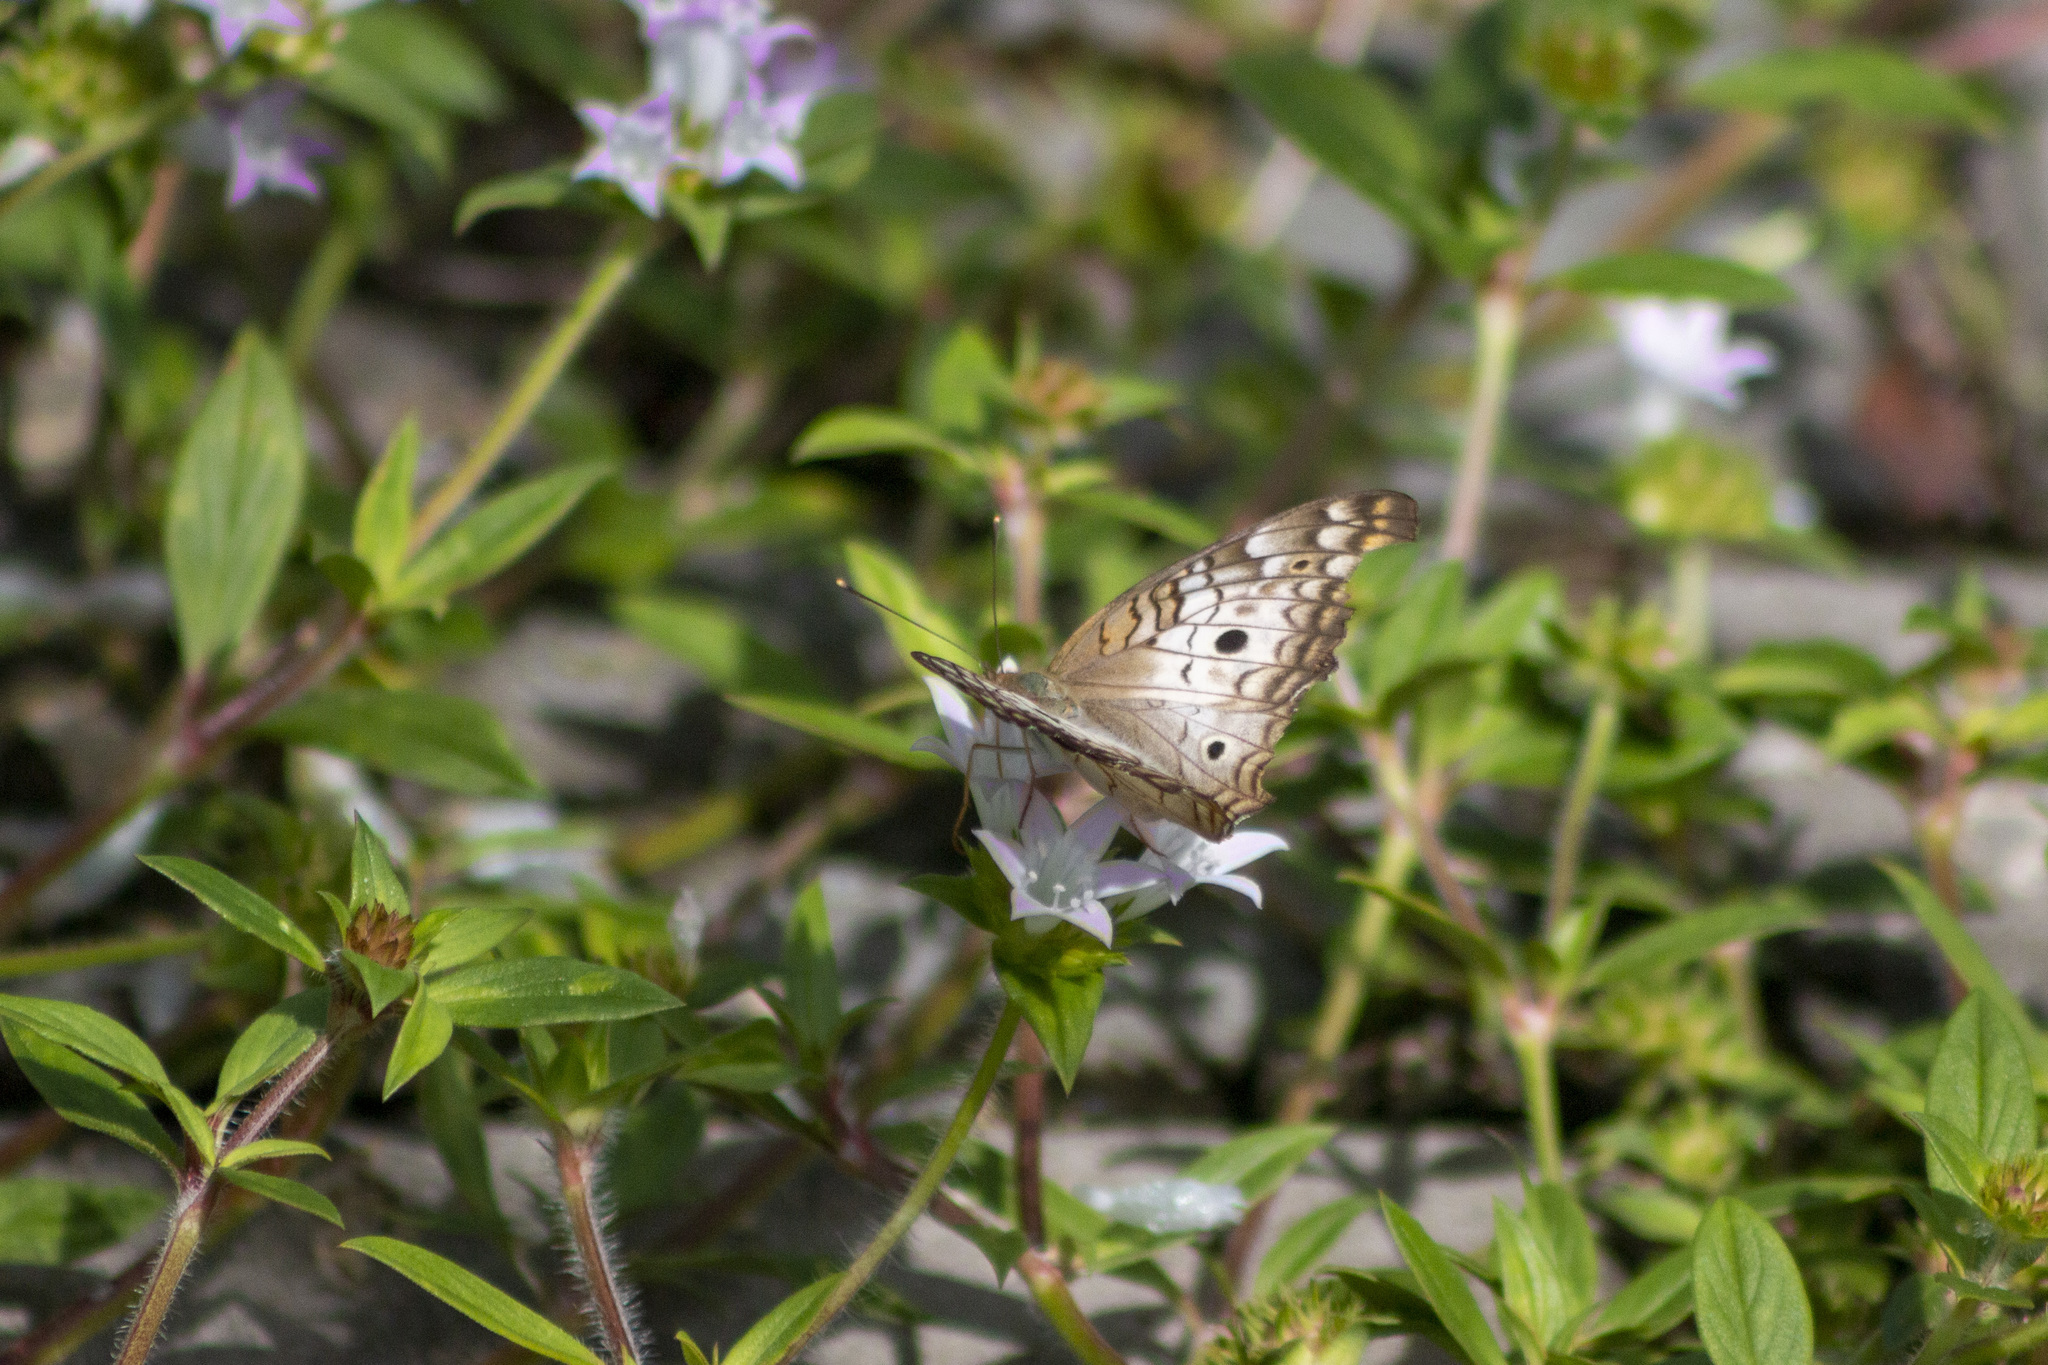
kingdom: Animalia
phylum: Arthropoda
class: Insecta
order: Lepidoptera
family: Nymphalidae
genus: Anartia
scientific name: Anartia jatrophae
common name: White peacock
